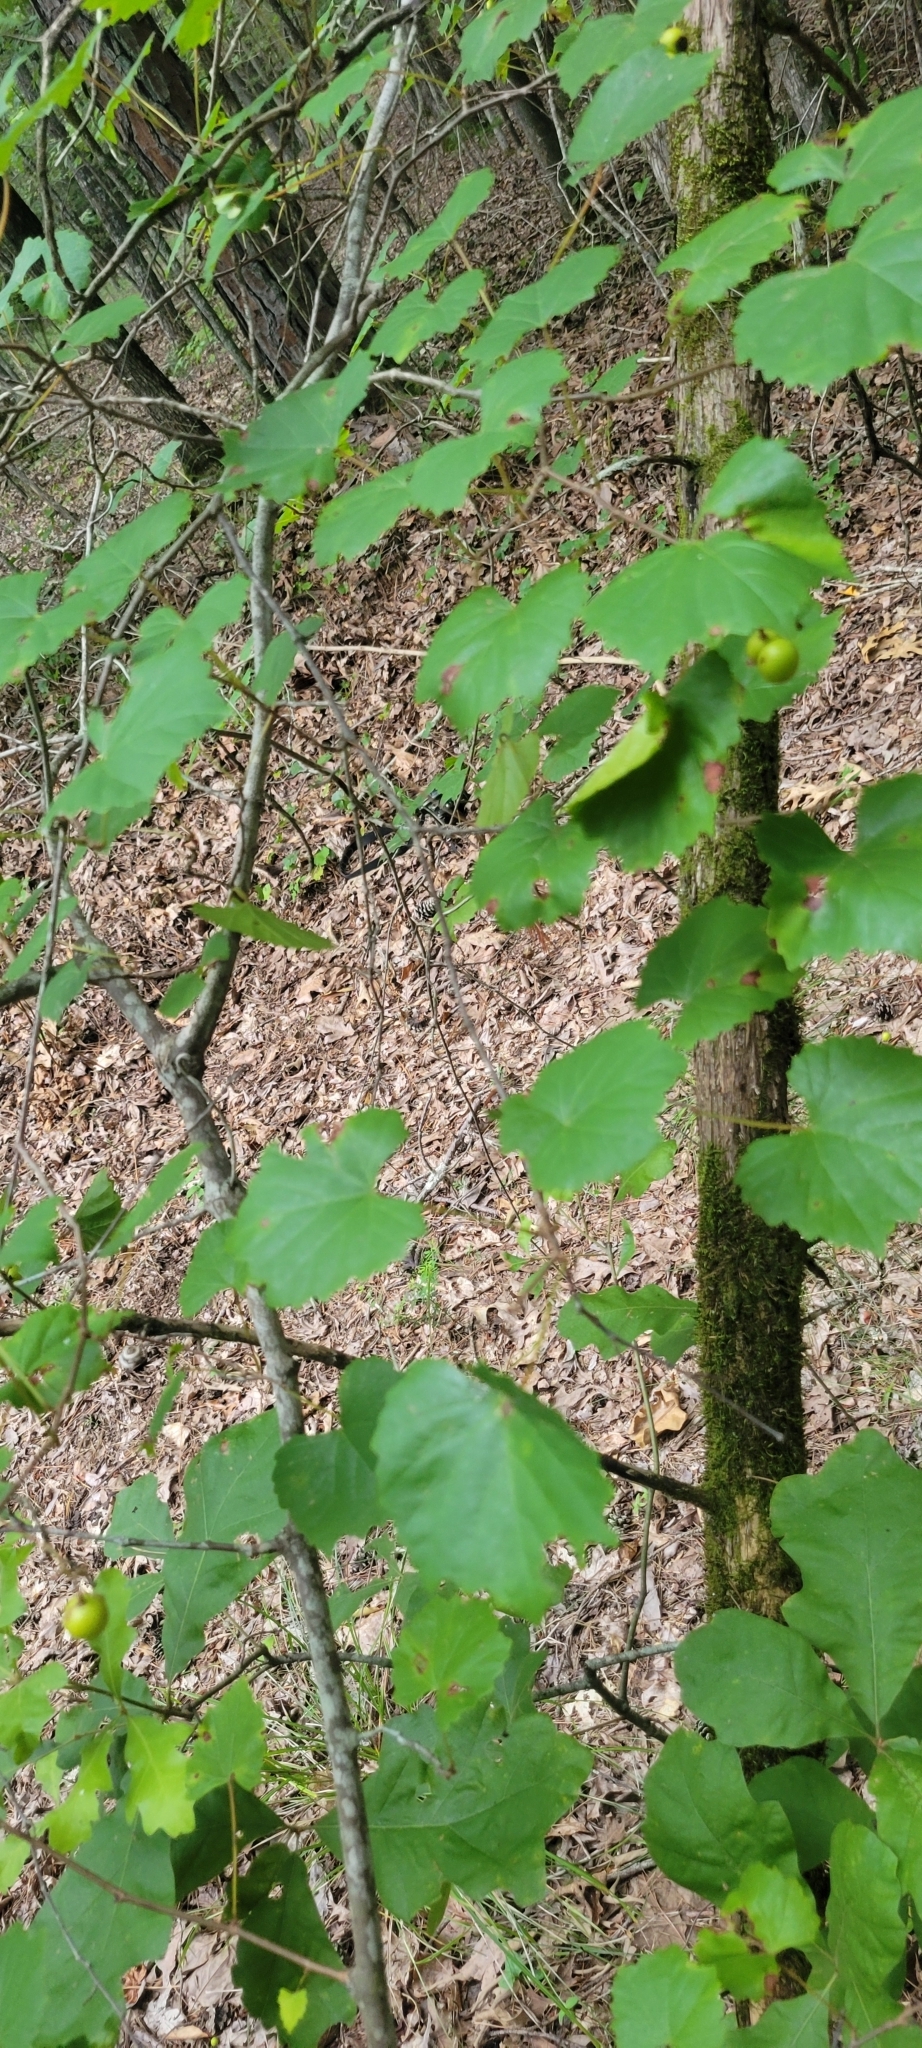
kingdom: Plantae
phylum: Tracheophyta
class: Magnoliopsida
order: Vitales
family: Vitaceae
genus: Vitis
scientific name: Vitis rotundifolia
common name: Muscadine grape
